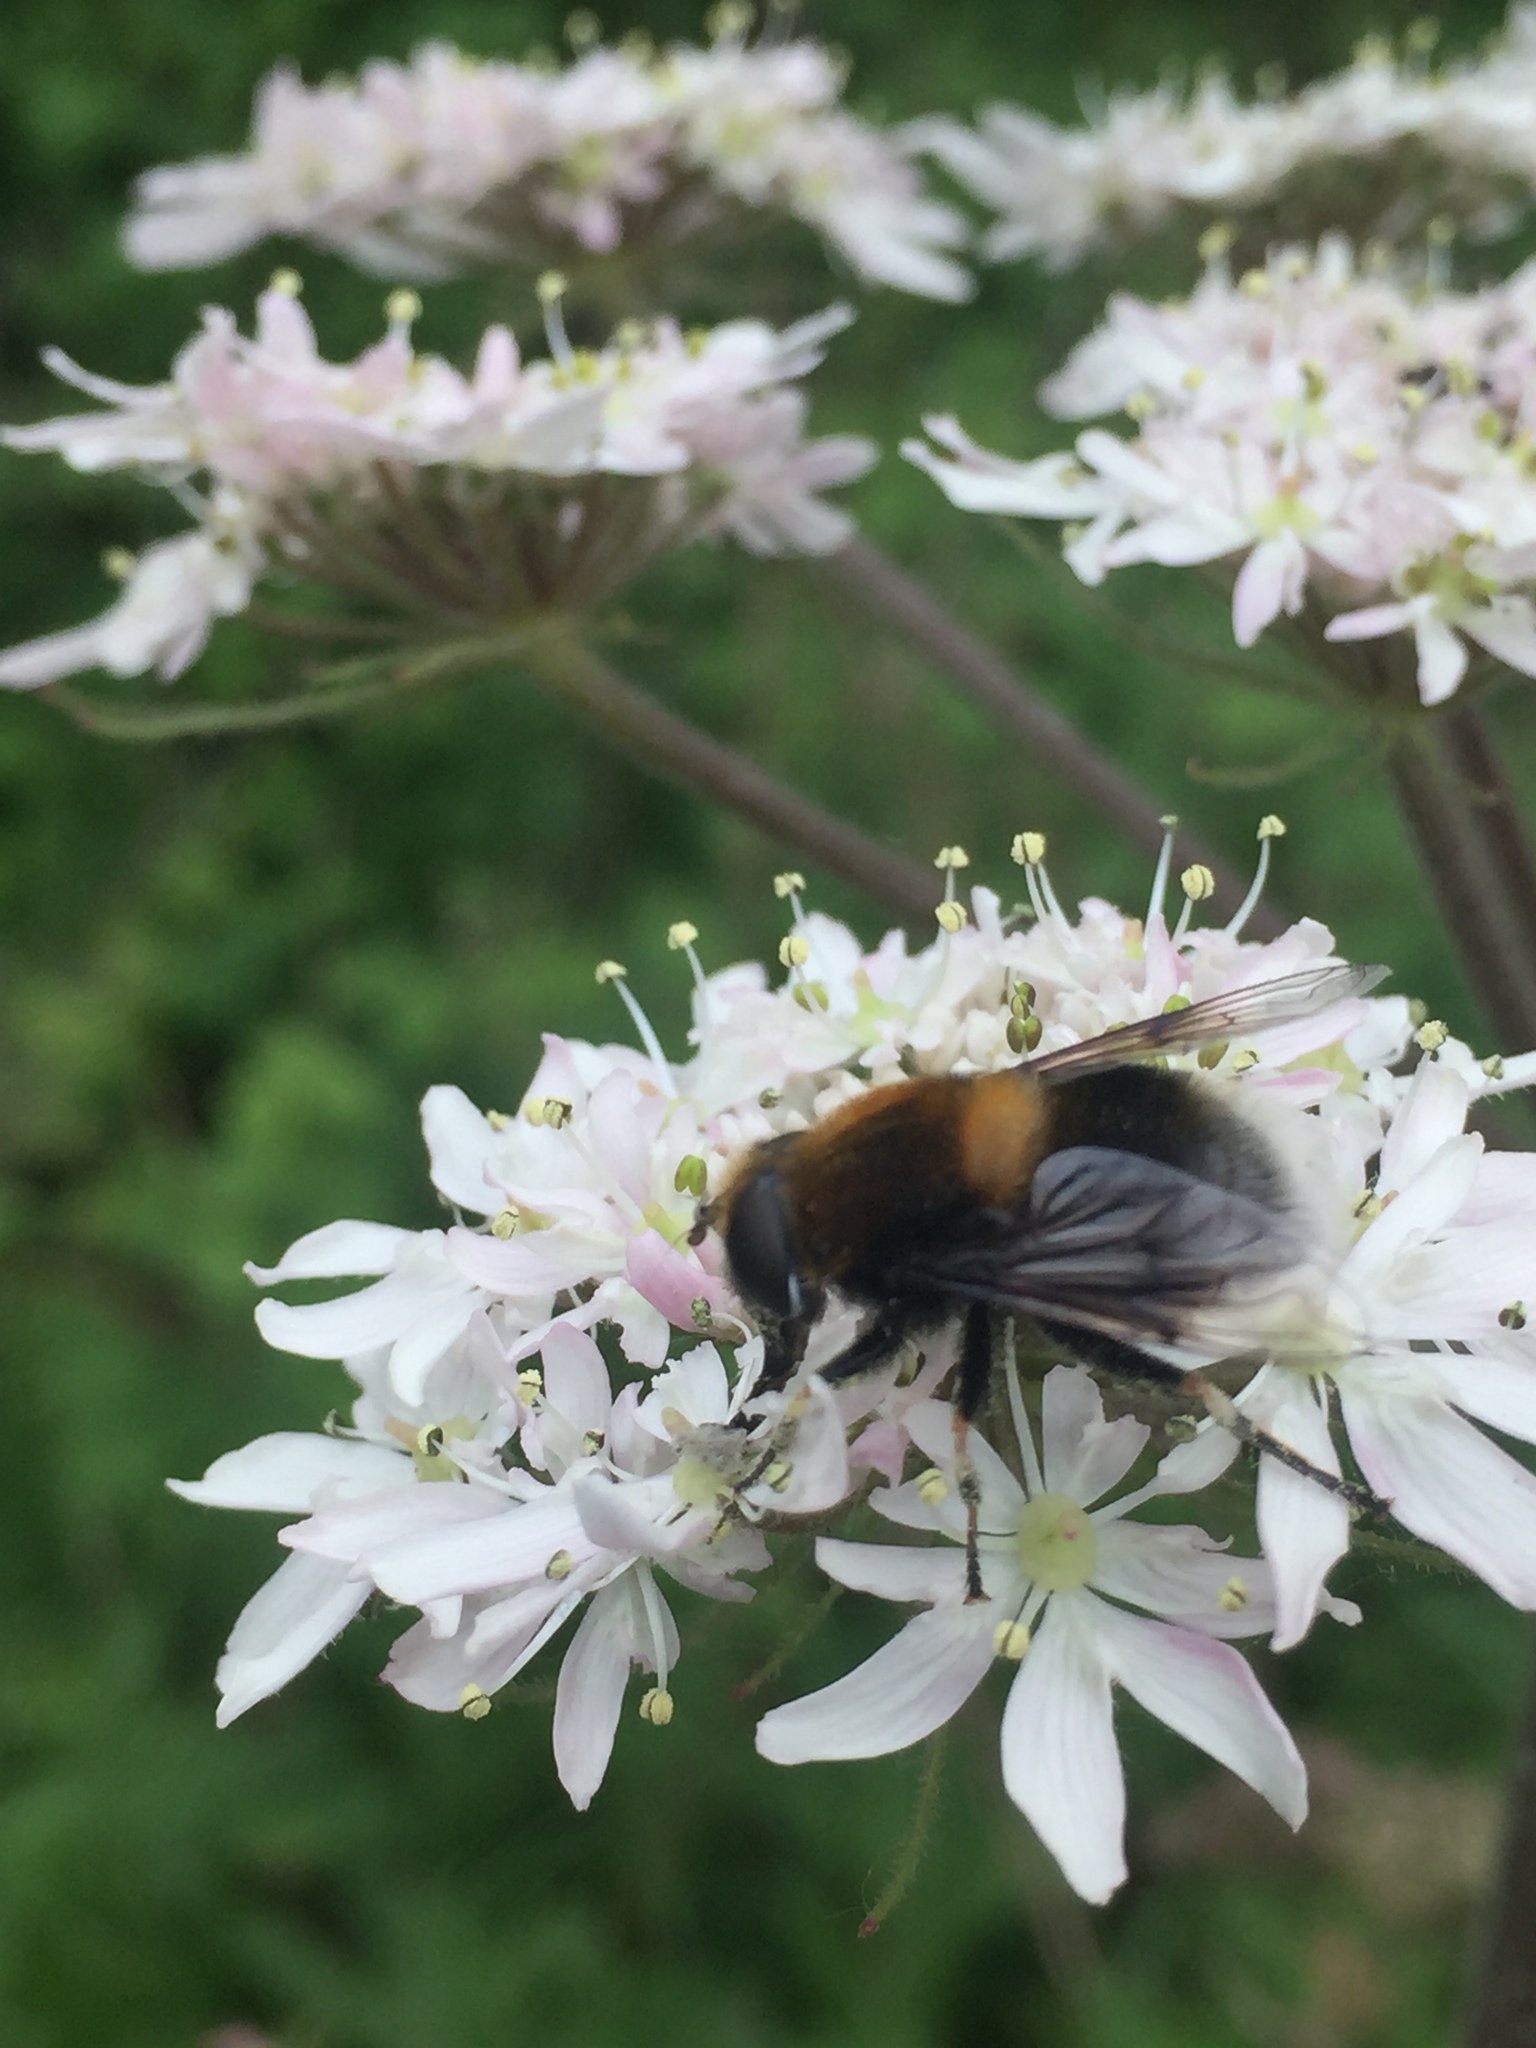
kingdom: Animalia
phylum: Arthropoda
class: Insecta
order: Diptera
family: Syrphidae
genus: Eristalis
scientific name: Eristalis intricaria
